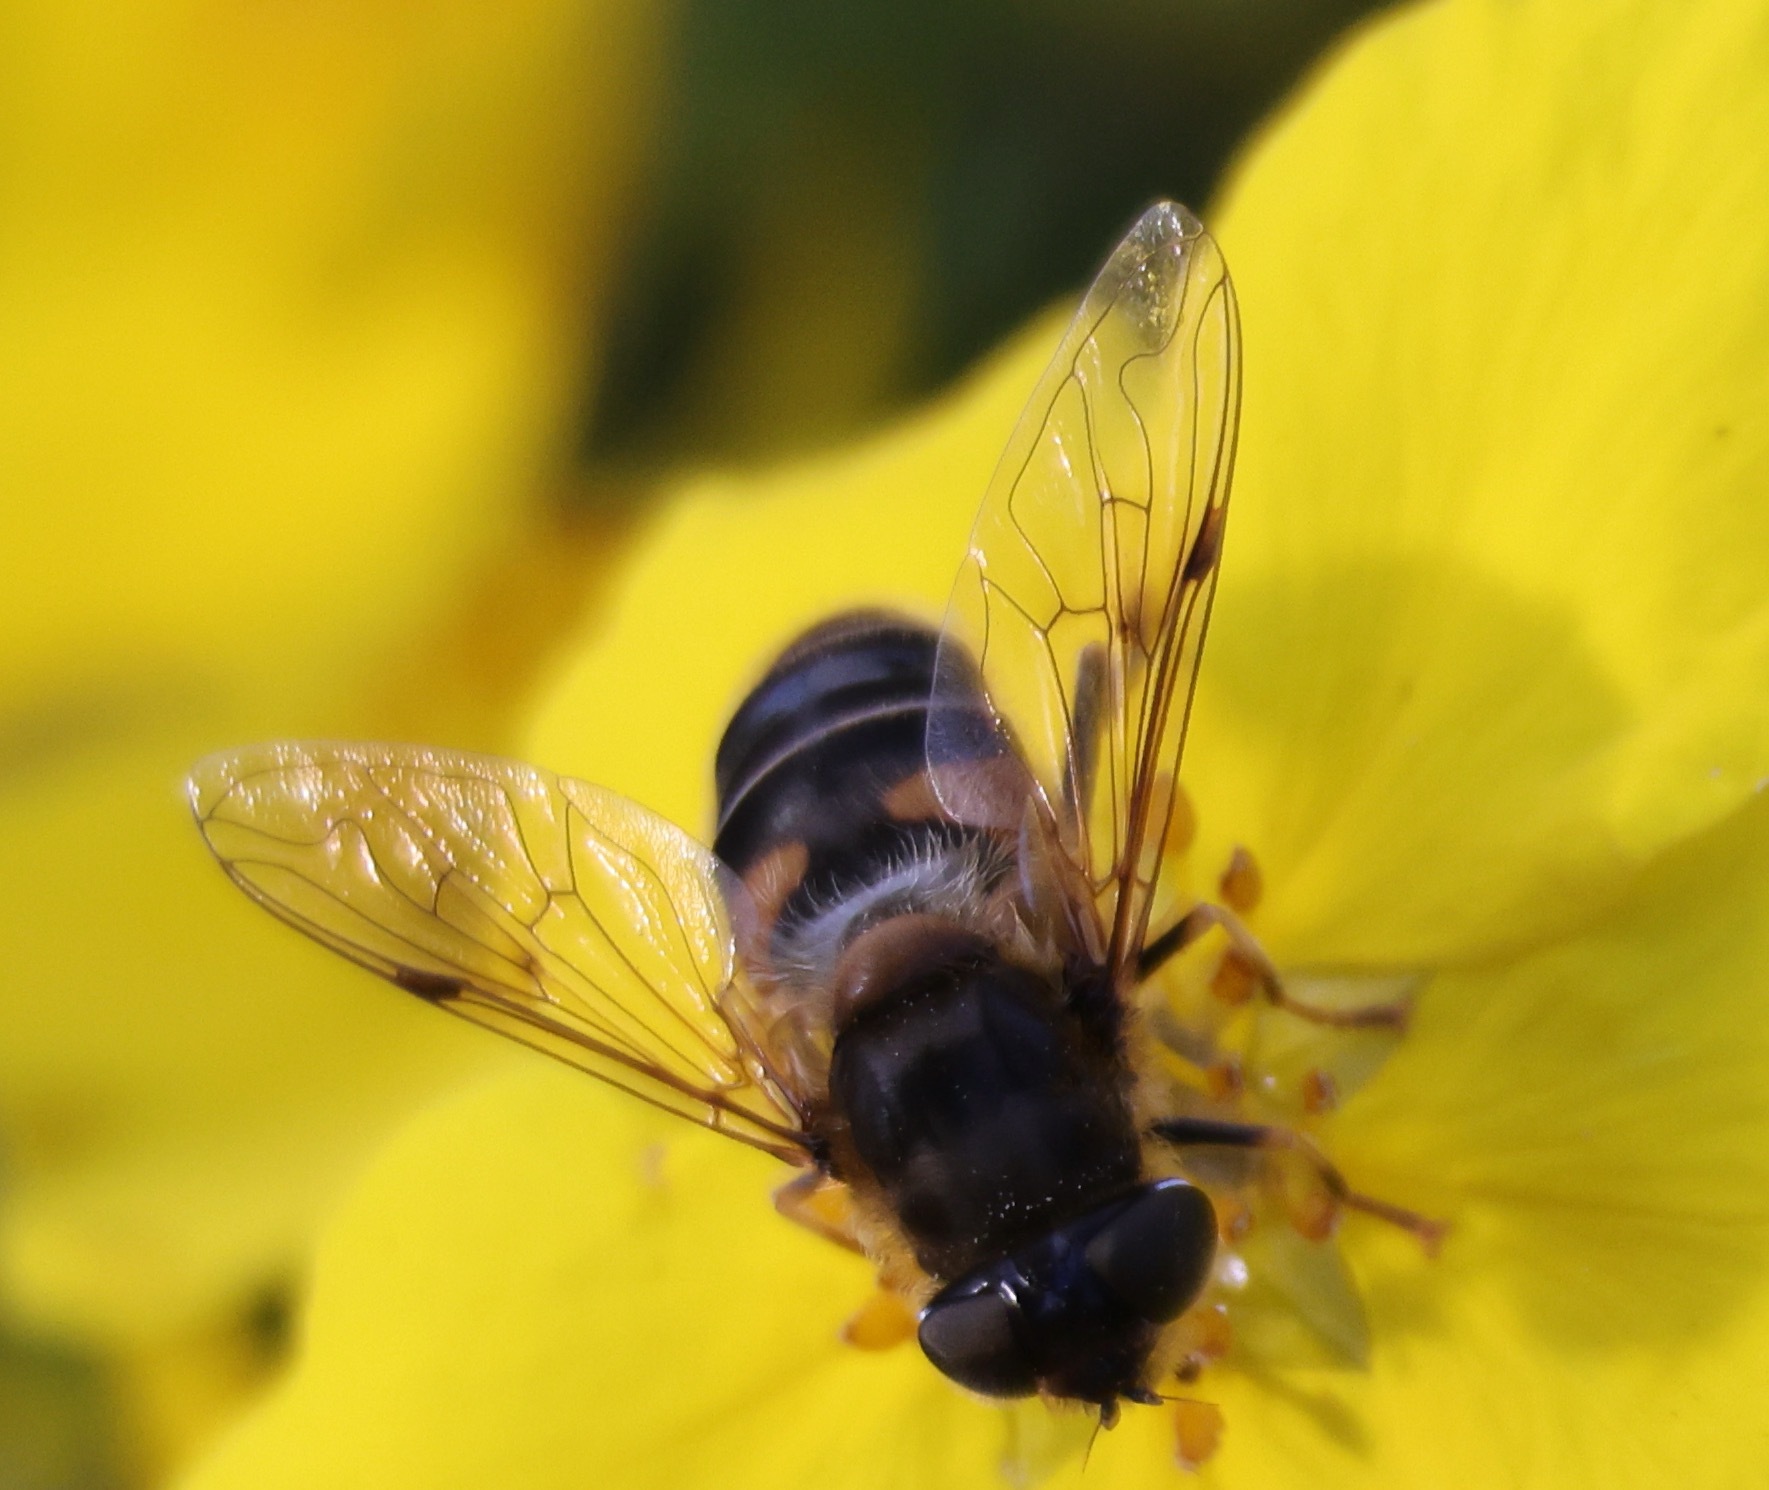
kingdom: Animalia
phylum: Arthropoda
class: Insecta
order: Diptera
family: Syrphidae
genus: Eristalis
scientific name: Eristalis pertinax
